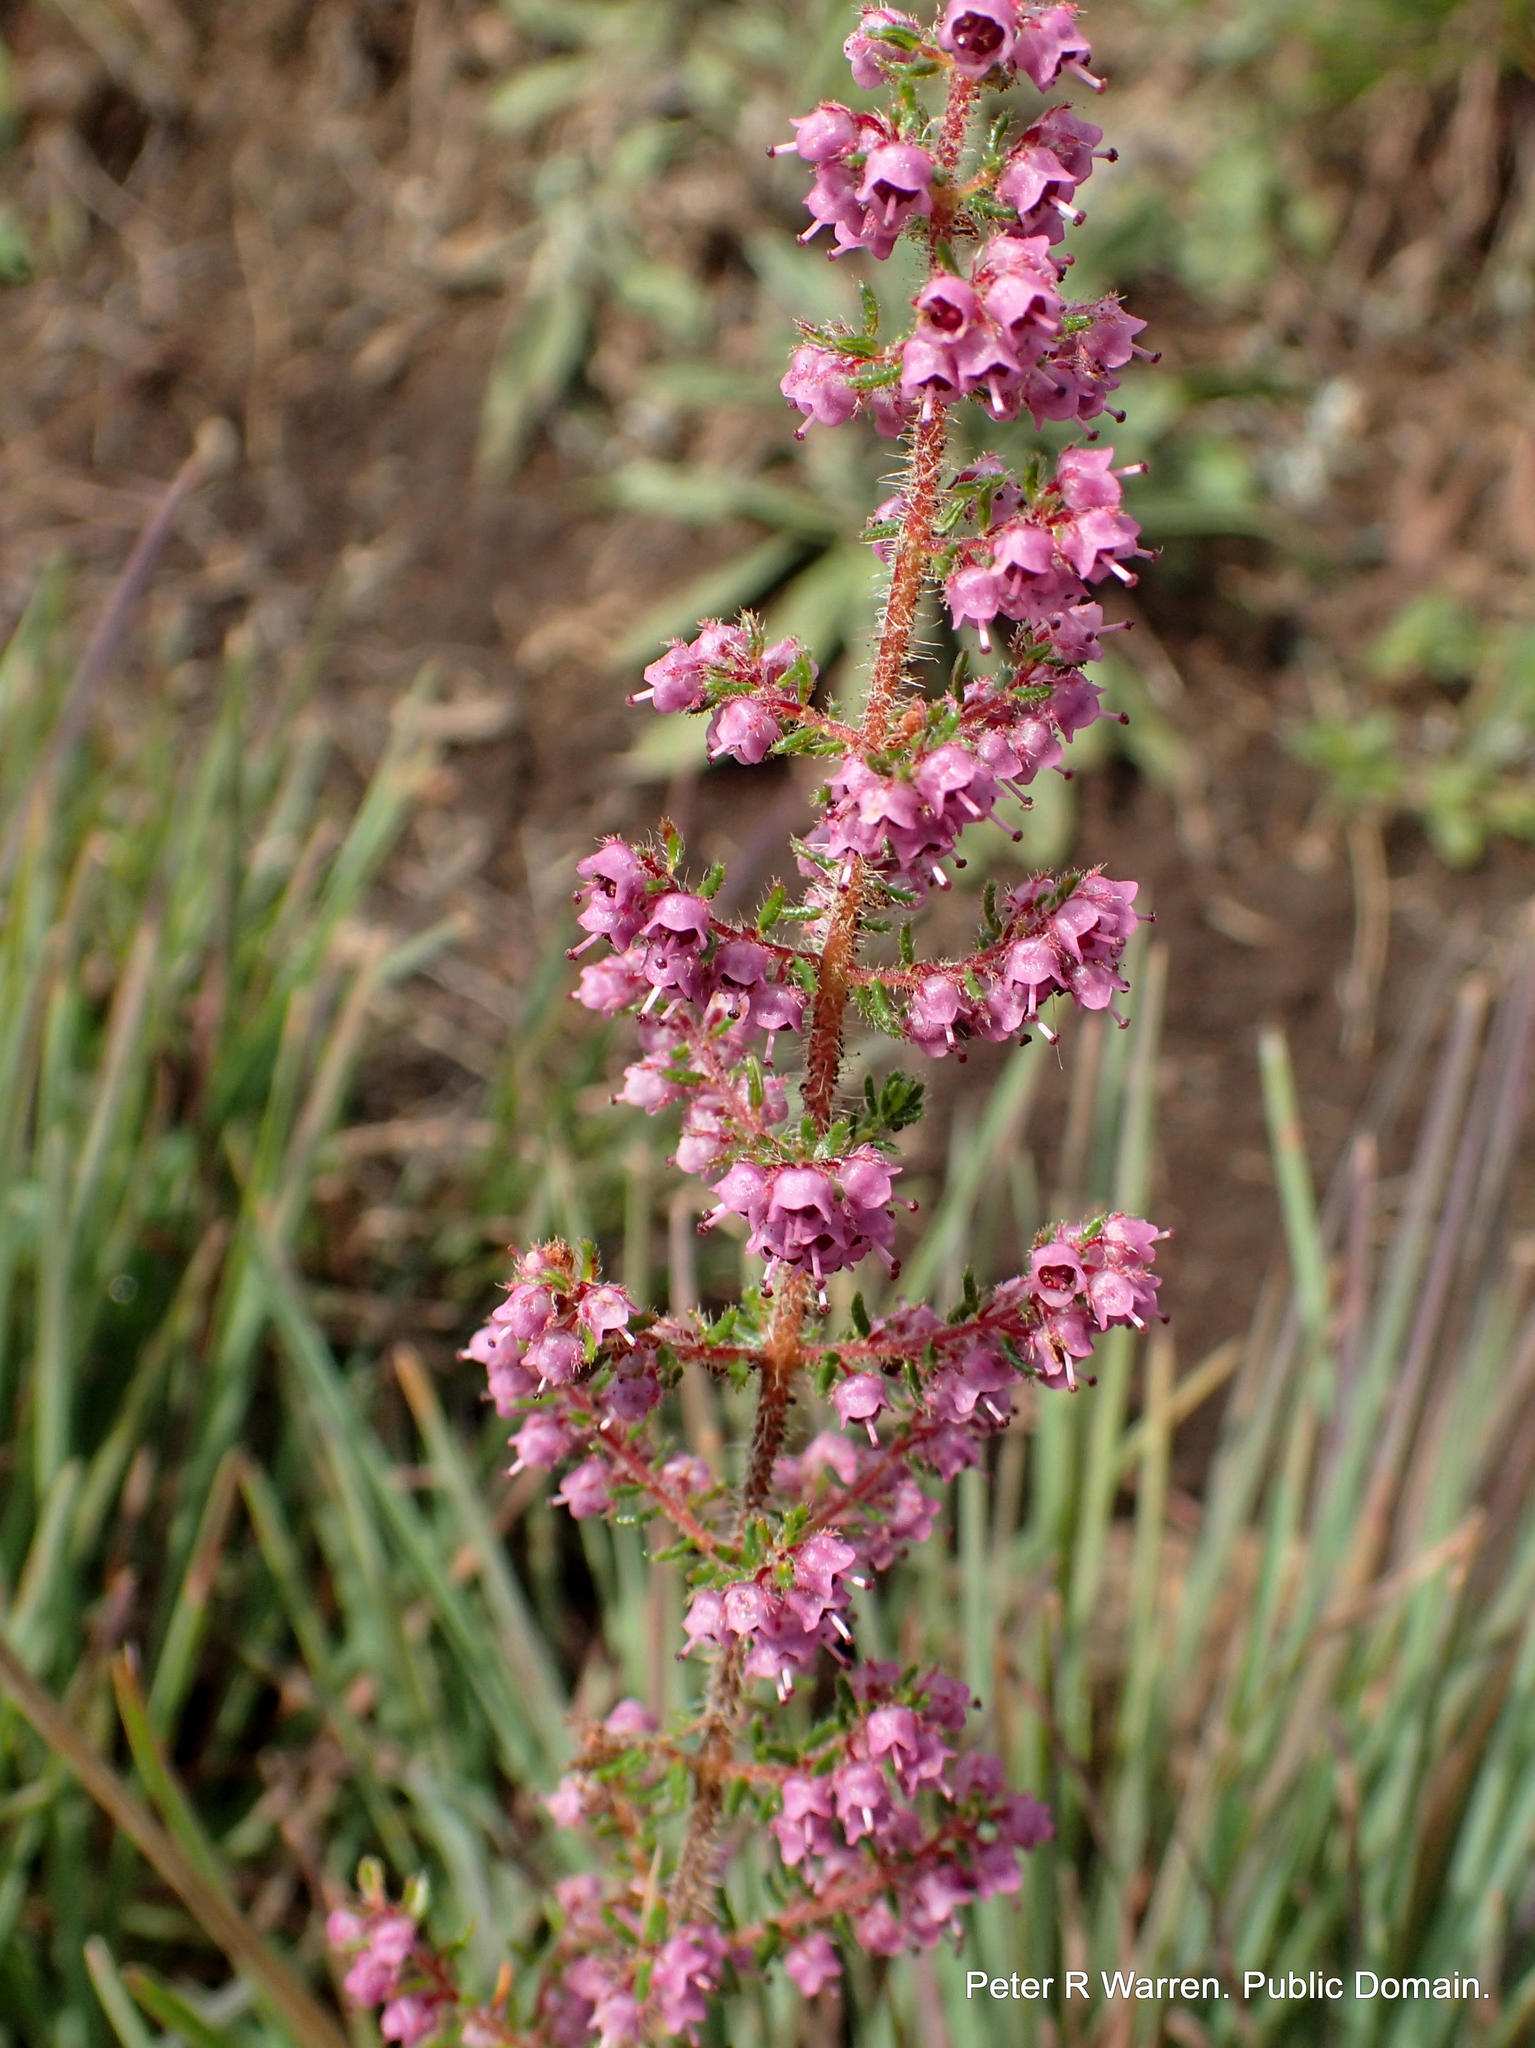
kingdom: Plantae
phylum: Tracheophyta
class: Magnoliopsida
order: Ericales
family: Ericaceae
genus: Erica
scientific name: Erica woodii
